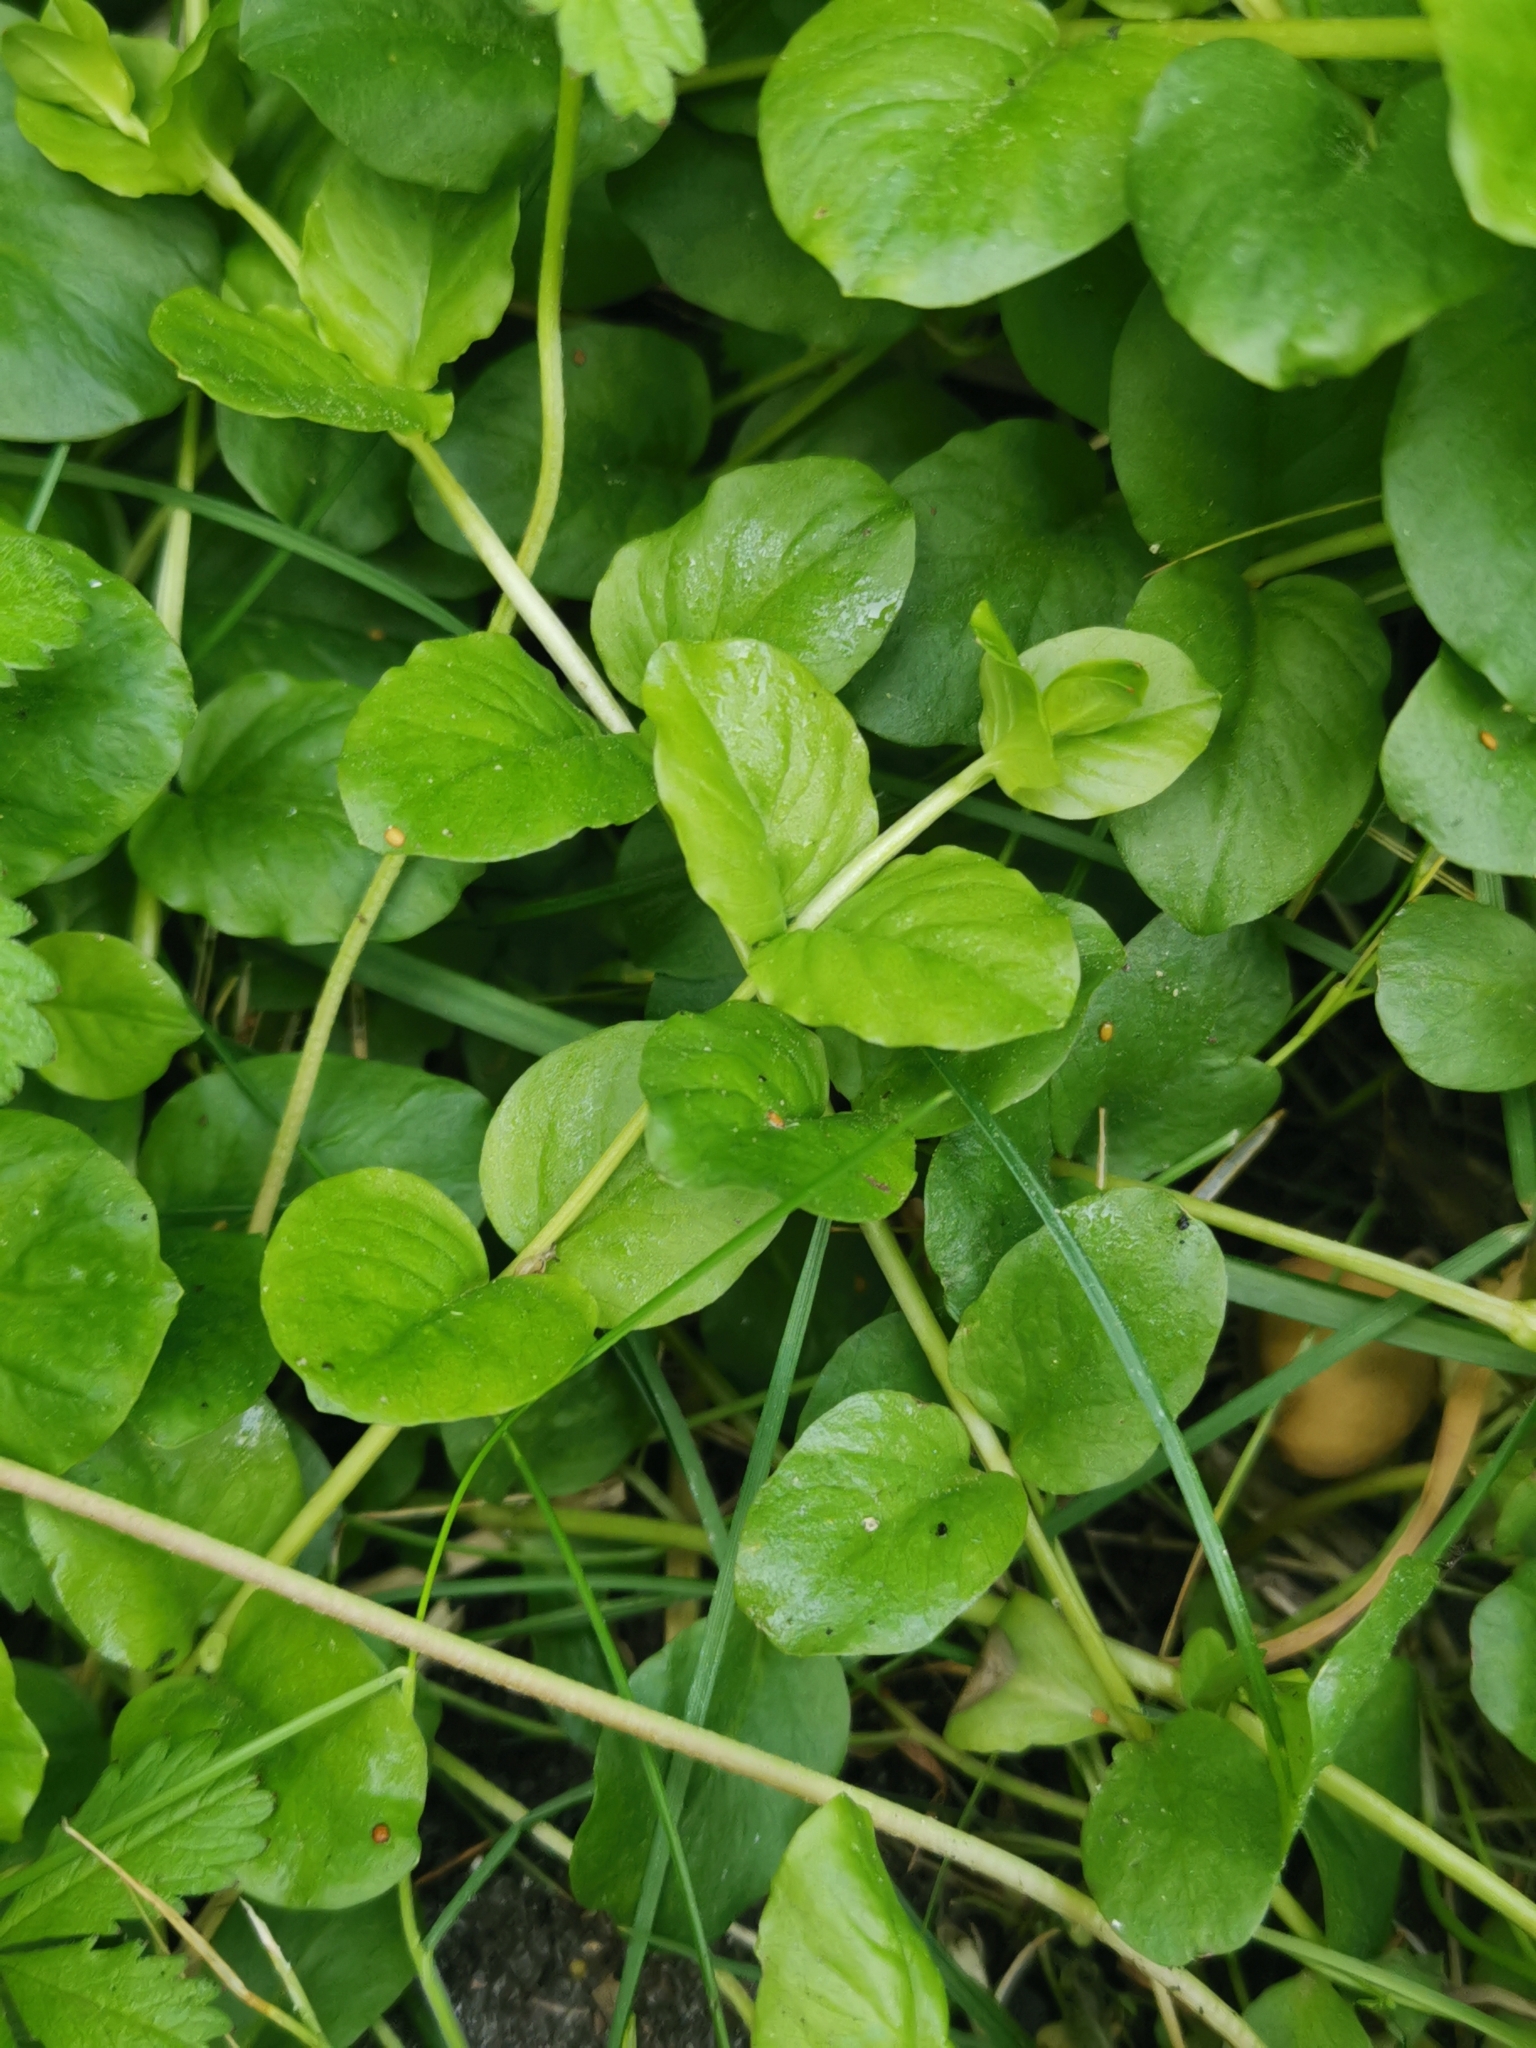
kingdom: Plantae
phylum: Tracheophyta
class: Magnoliopsida
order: Ericales
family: Primulaceae
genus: Lysimachia
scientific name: Lysimachia nummularia
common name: Moneywort
